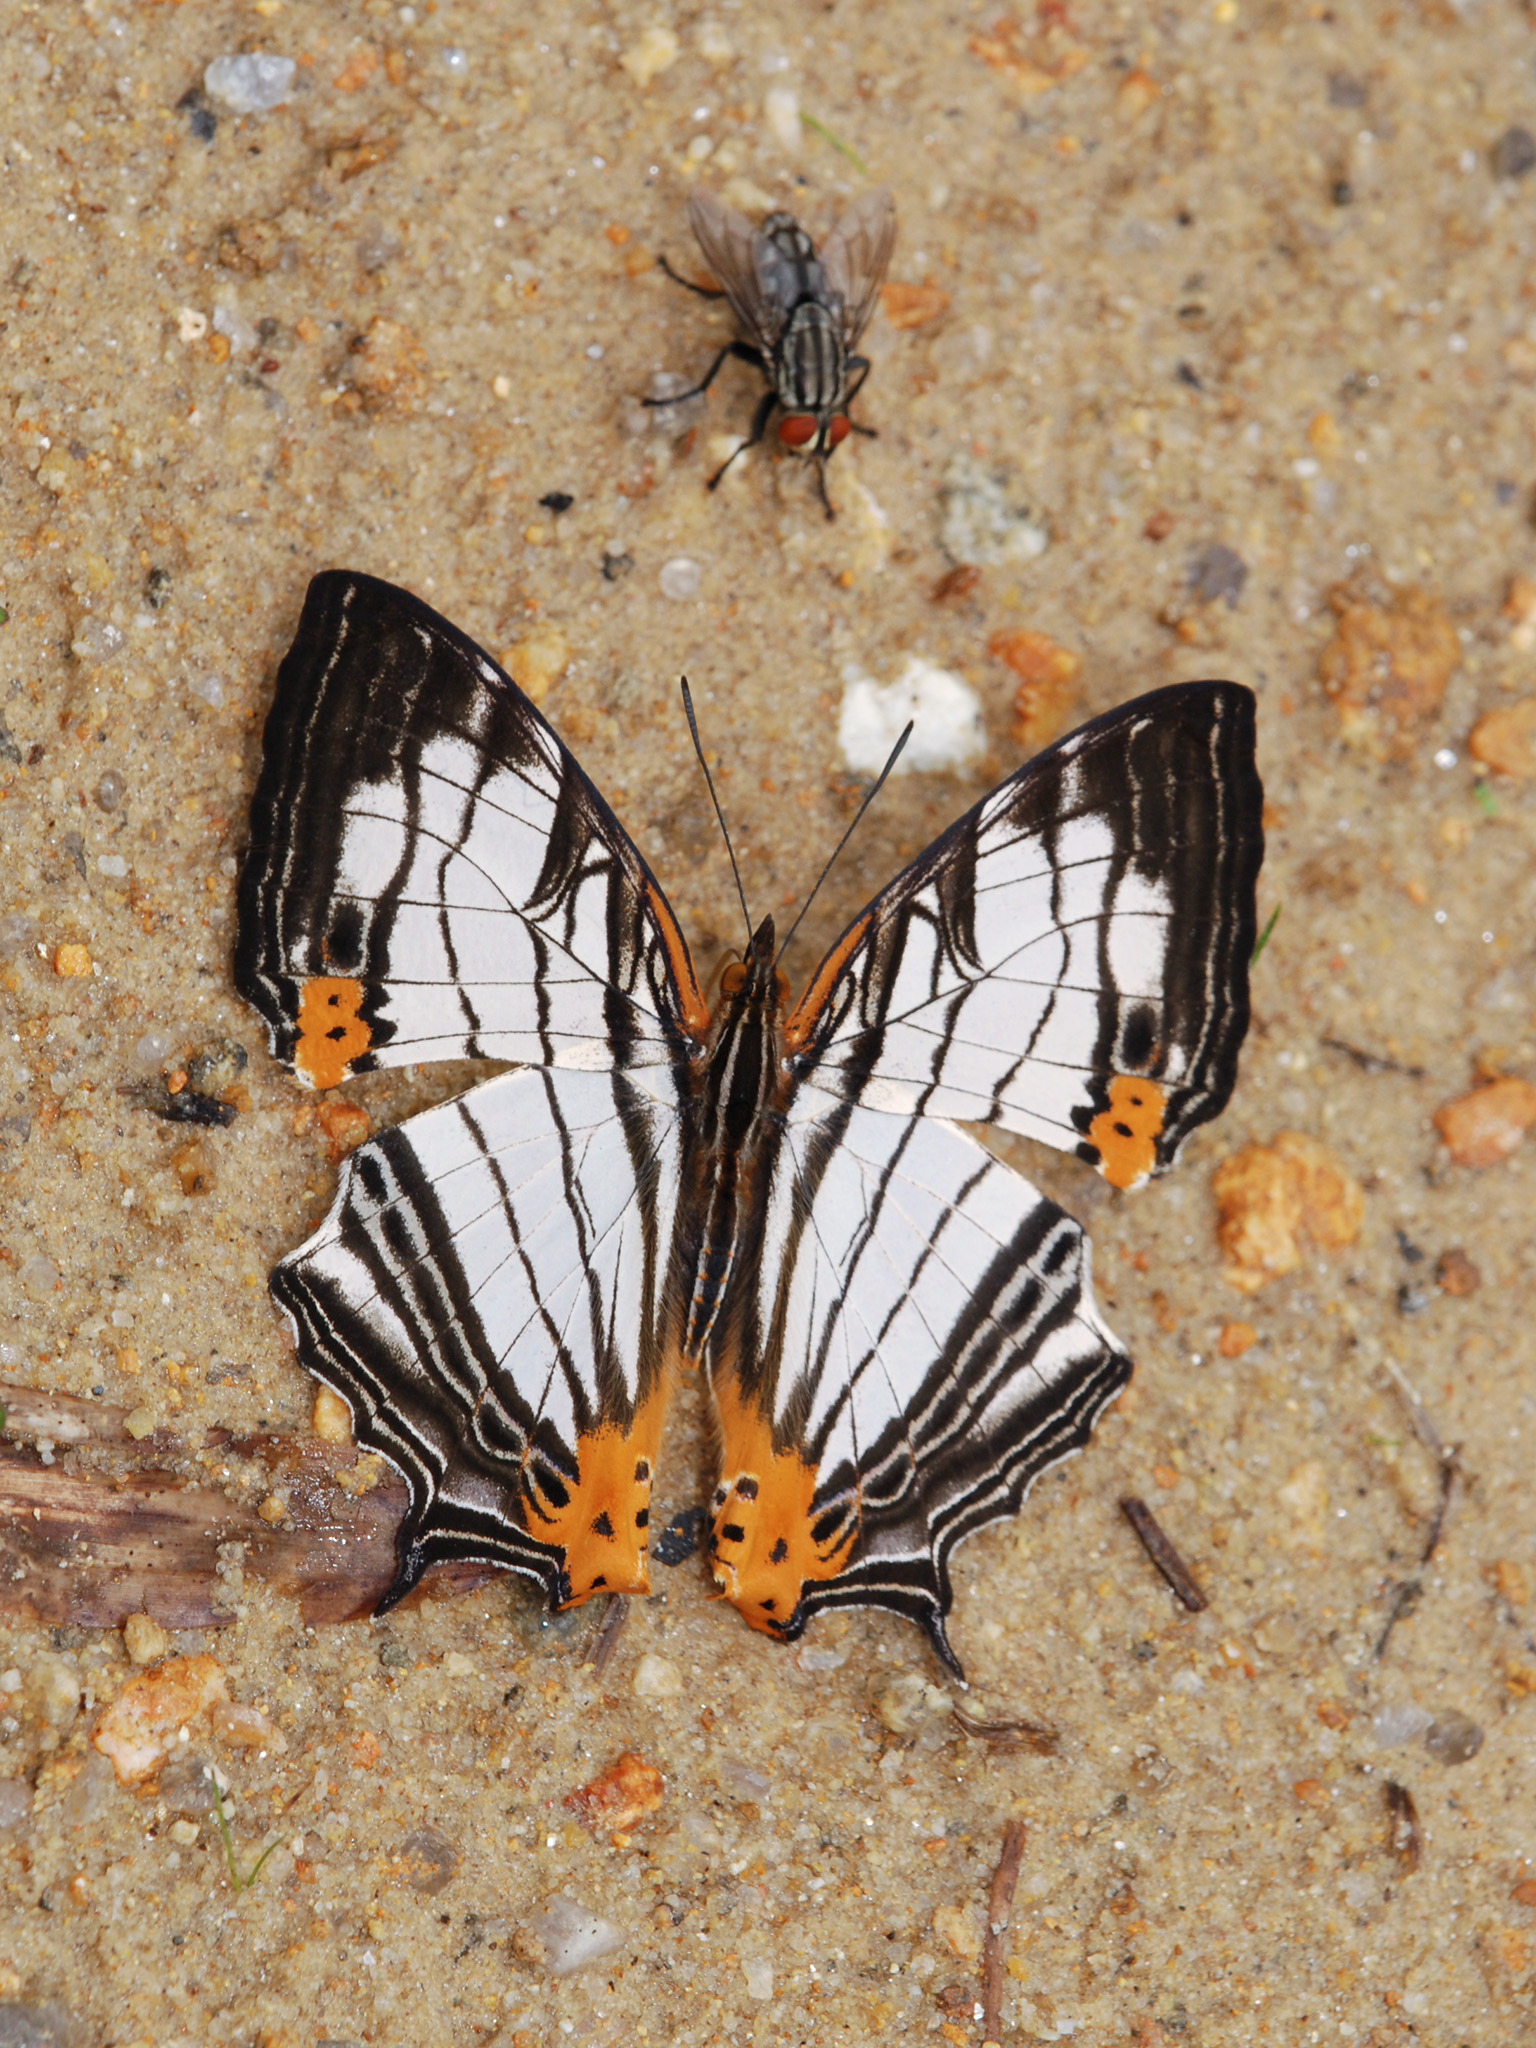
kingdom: Animalia
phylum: Arthropoda
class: Insecta
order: Lepidoptera
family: Nymphalidae
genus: Cyrestis
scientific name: Cyrestis maenalis
